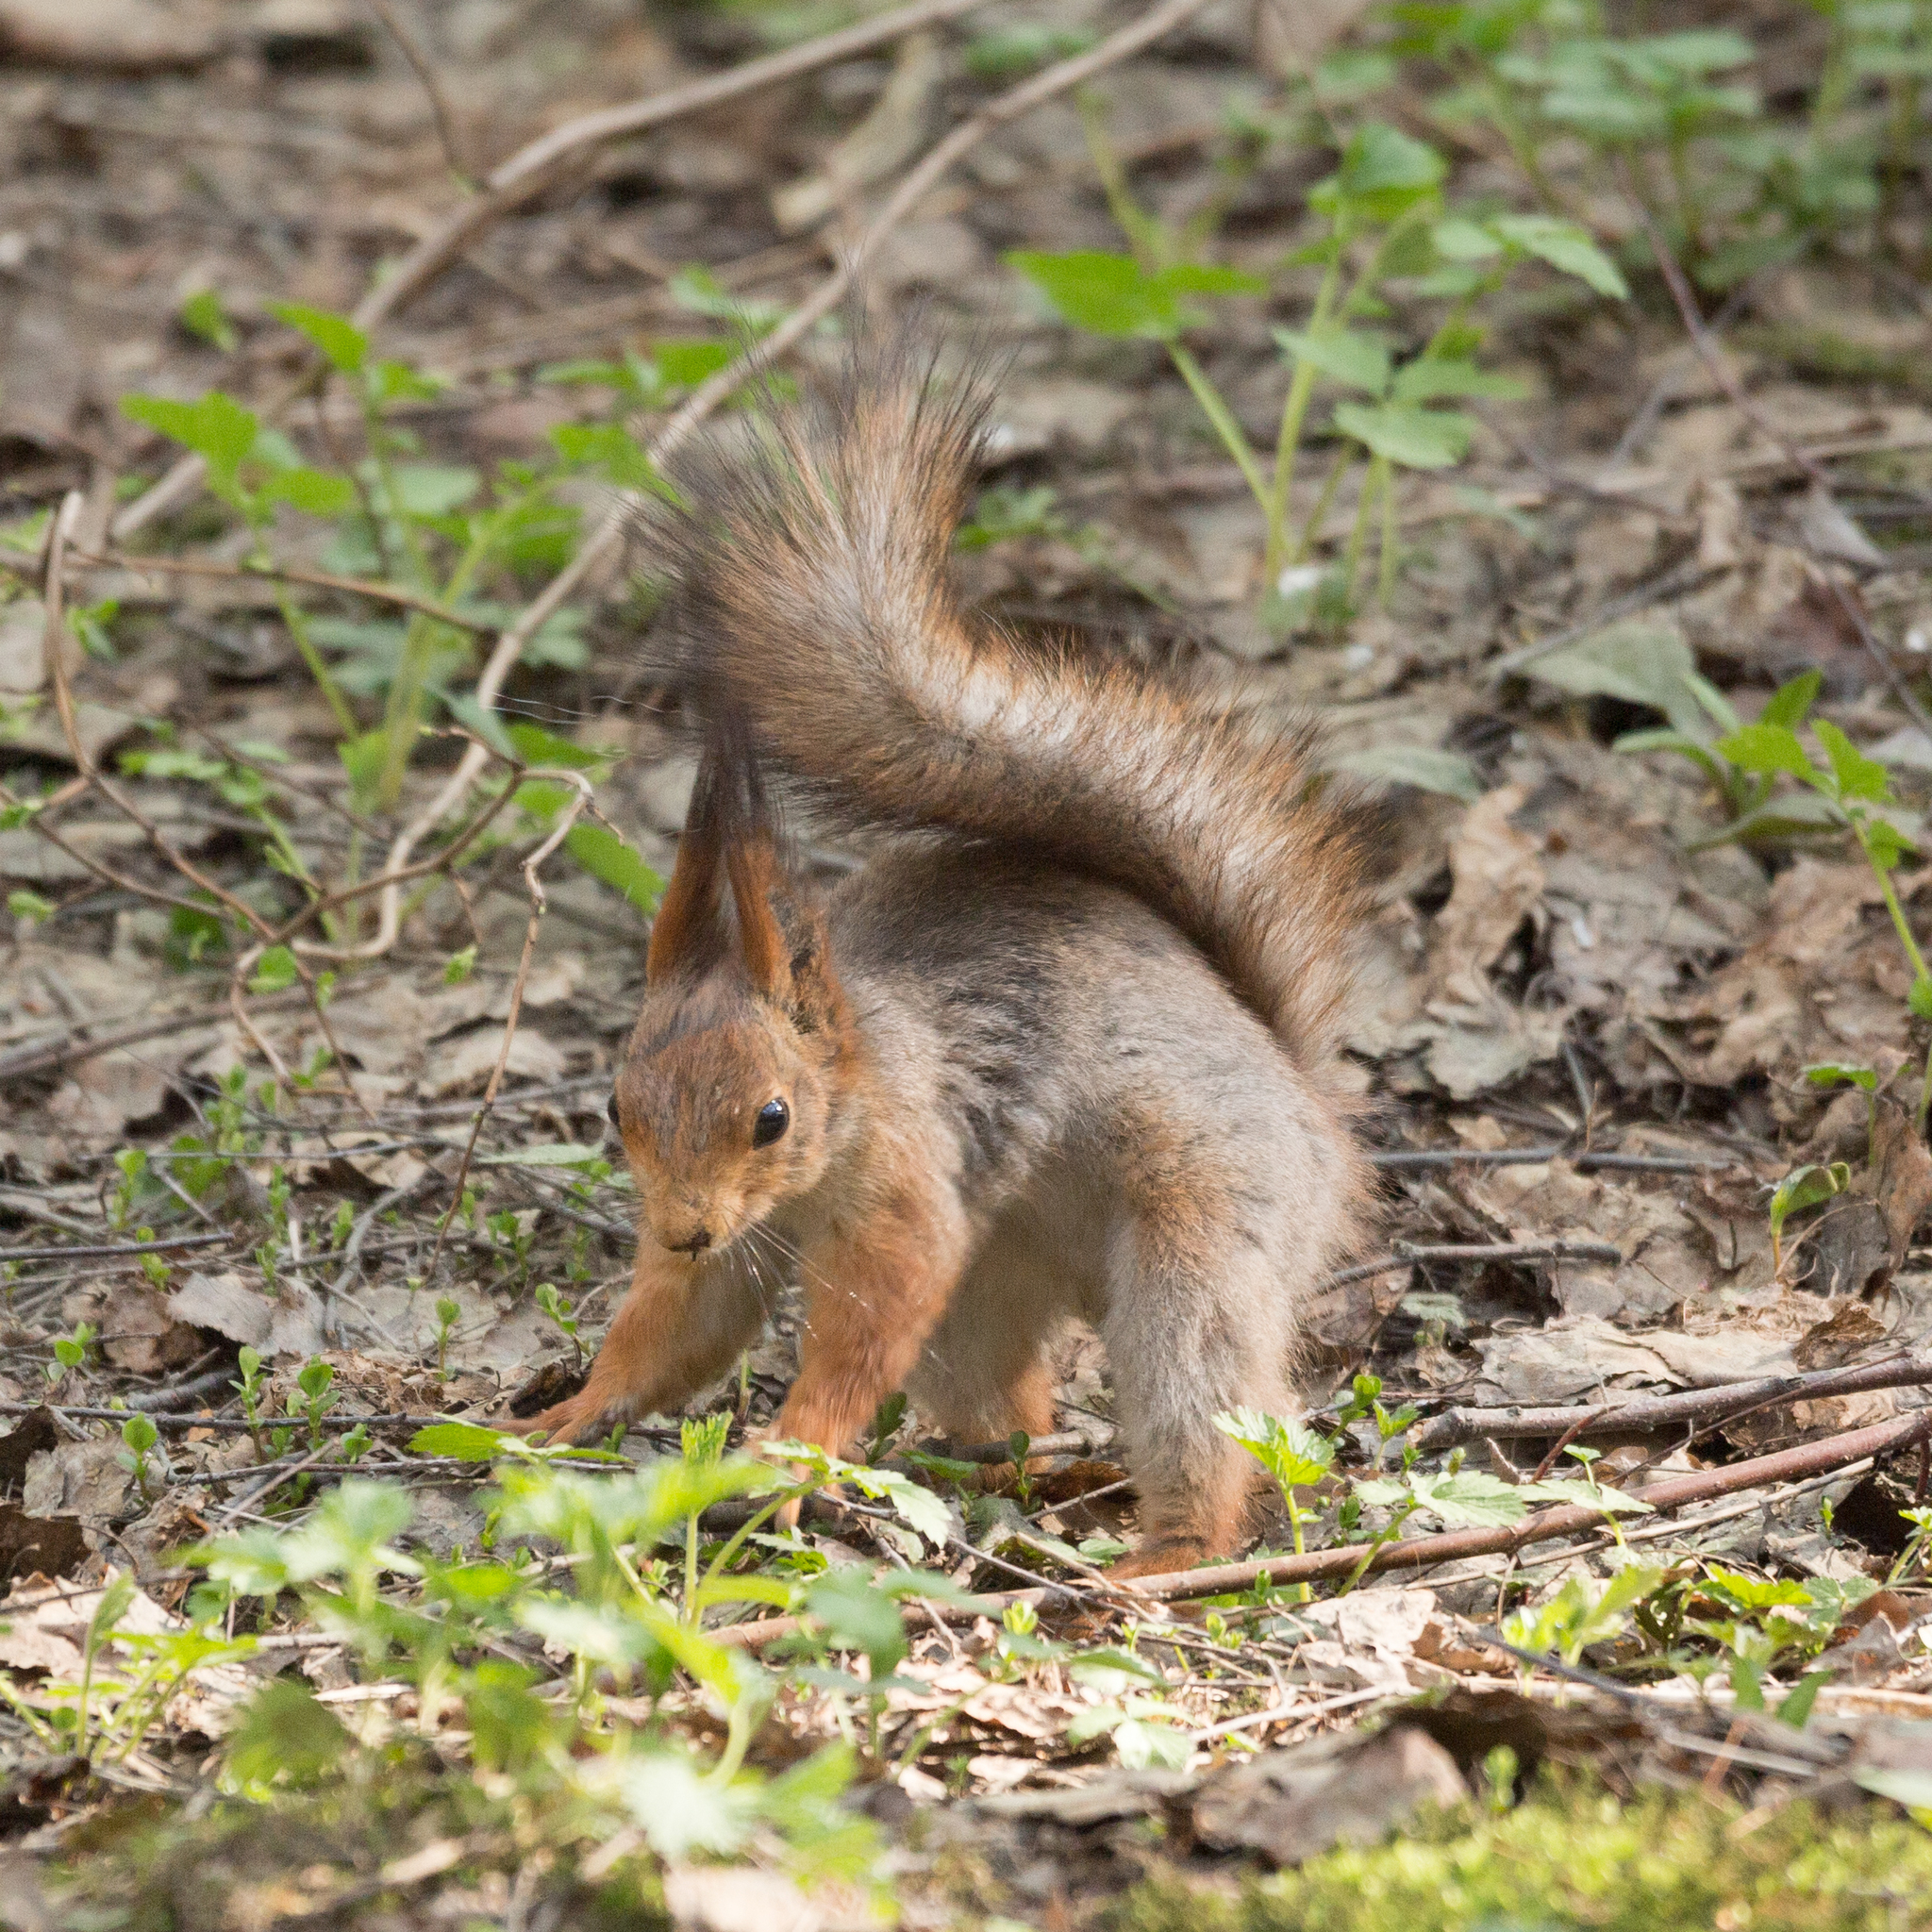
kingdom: Animalia
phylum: Chordata
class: Mammalia
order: Rodentia
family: Sciuridae
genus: Sciurus
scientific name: Sciurus vulgaris
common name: Eurasian red squirrel
